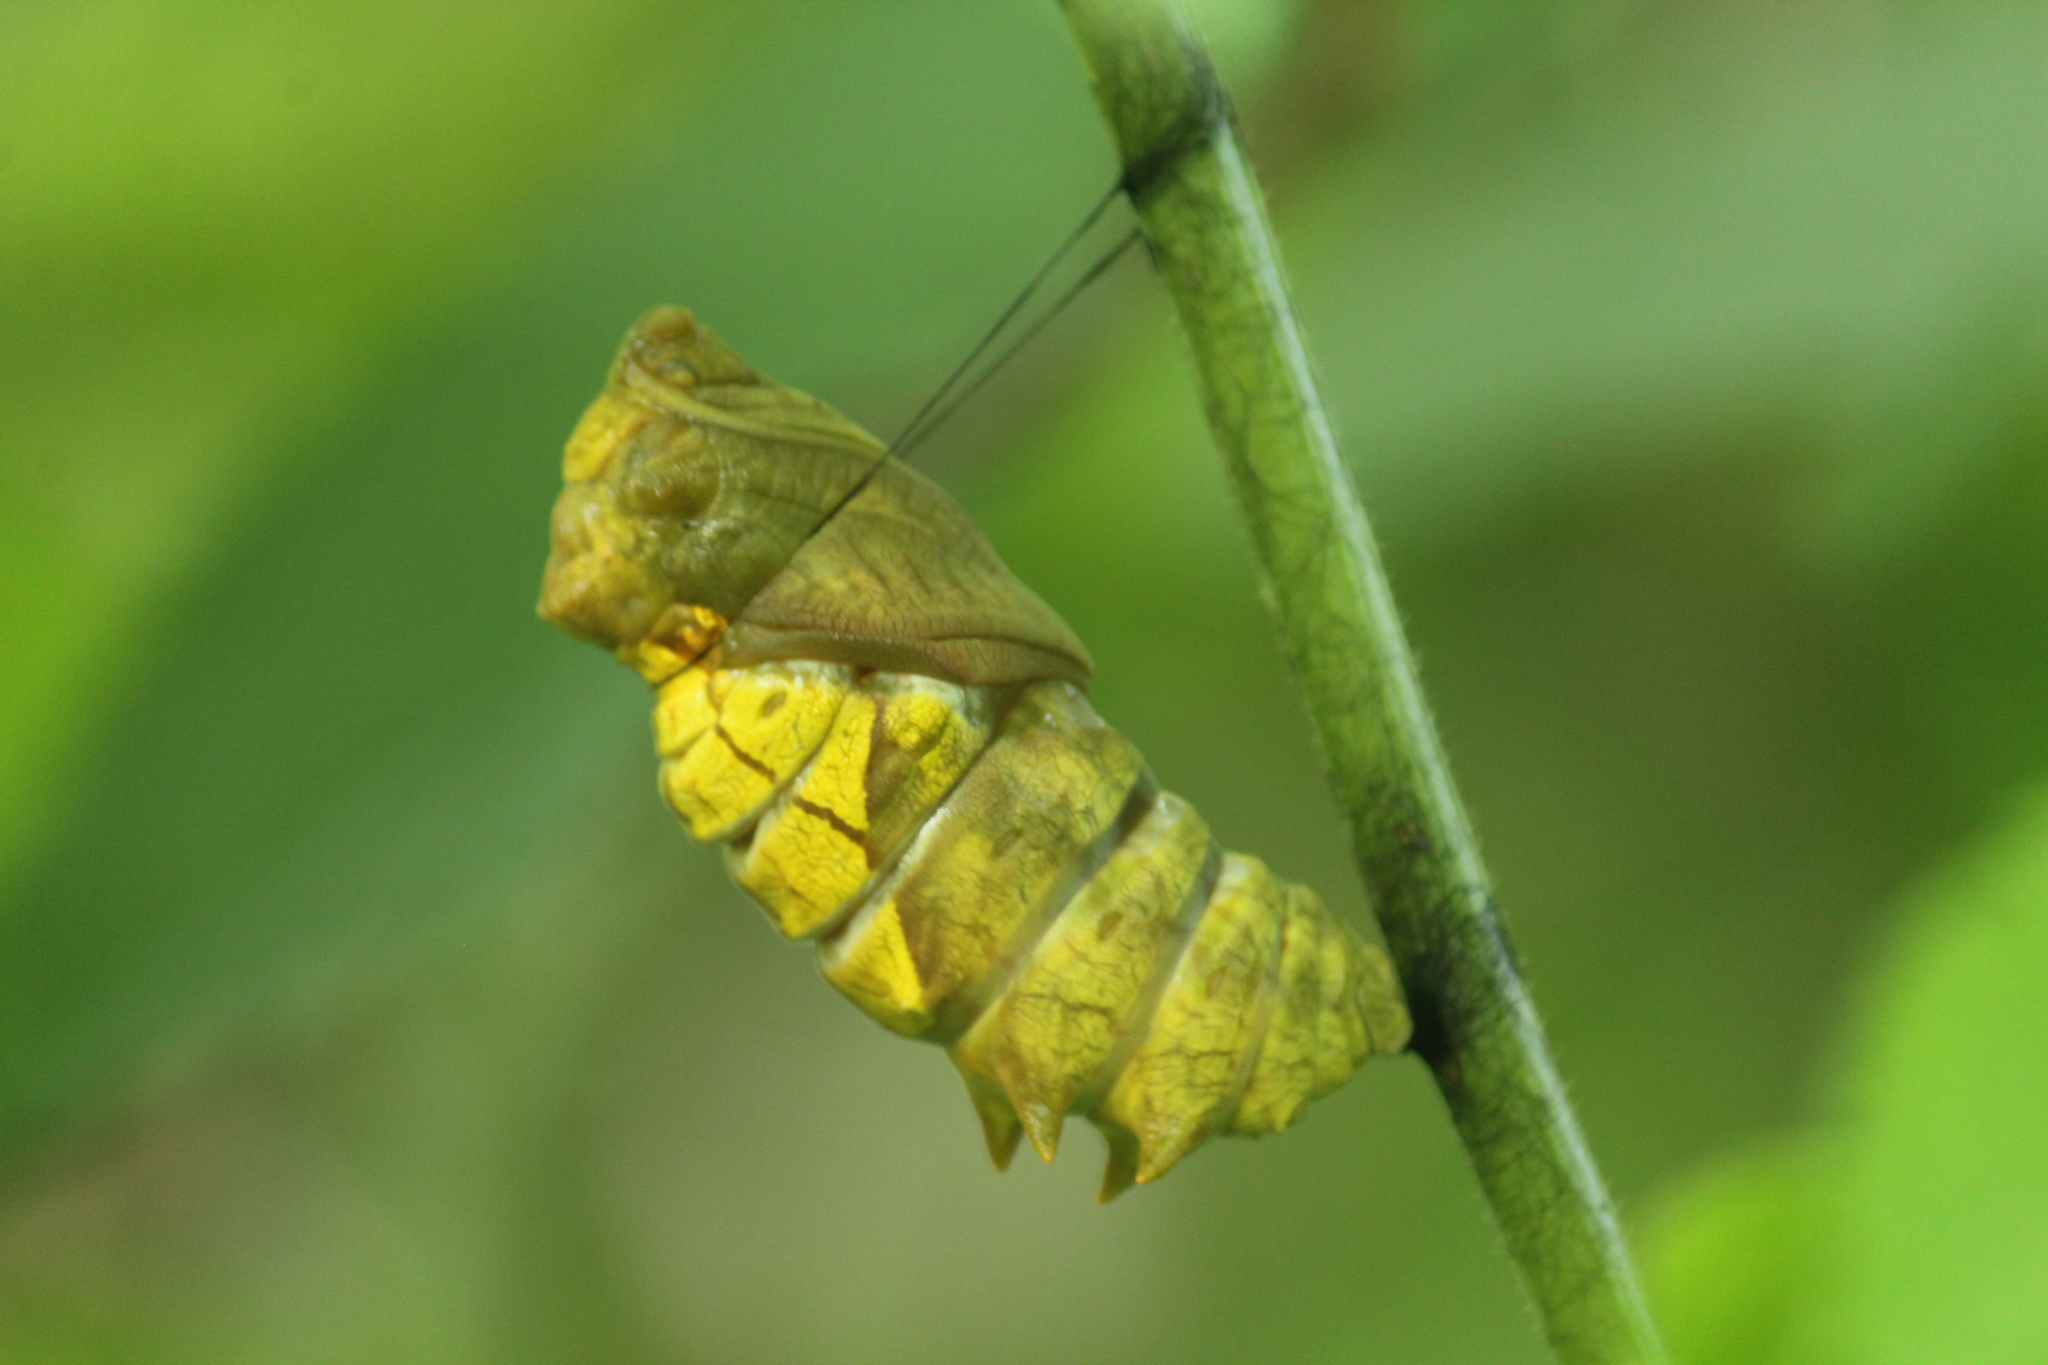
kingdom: Animalia
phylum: Arthropoda
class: Insecta
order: Lepidoptera
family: Papilionidae
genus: Troides
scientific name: Troides minos
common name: Malabar birdwing
